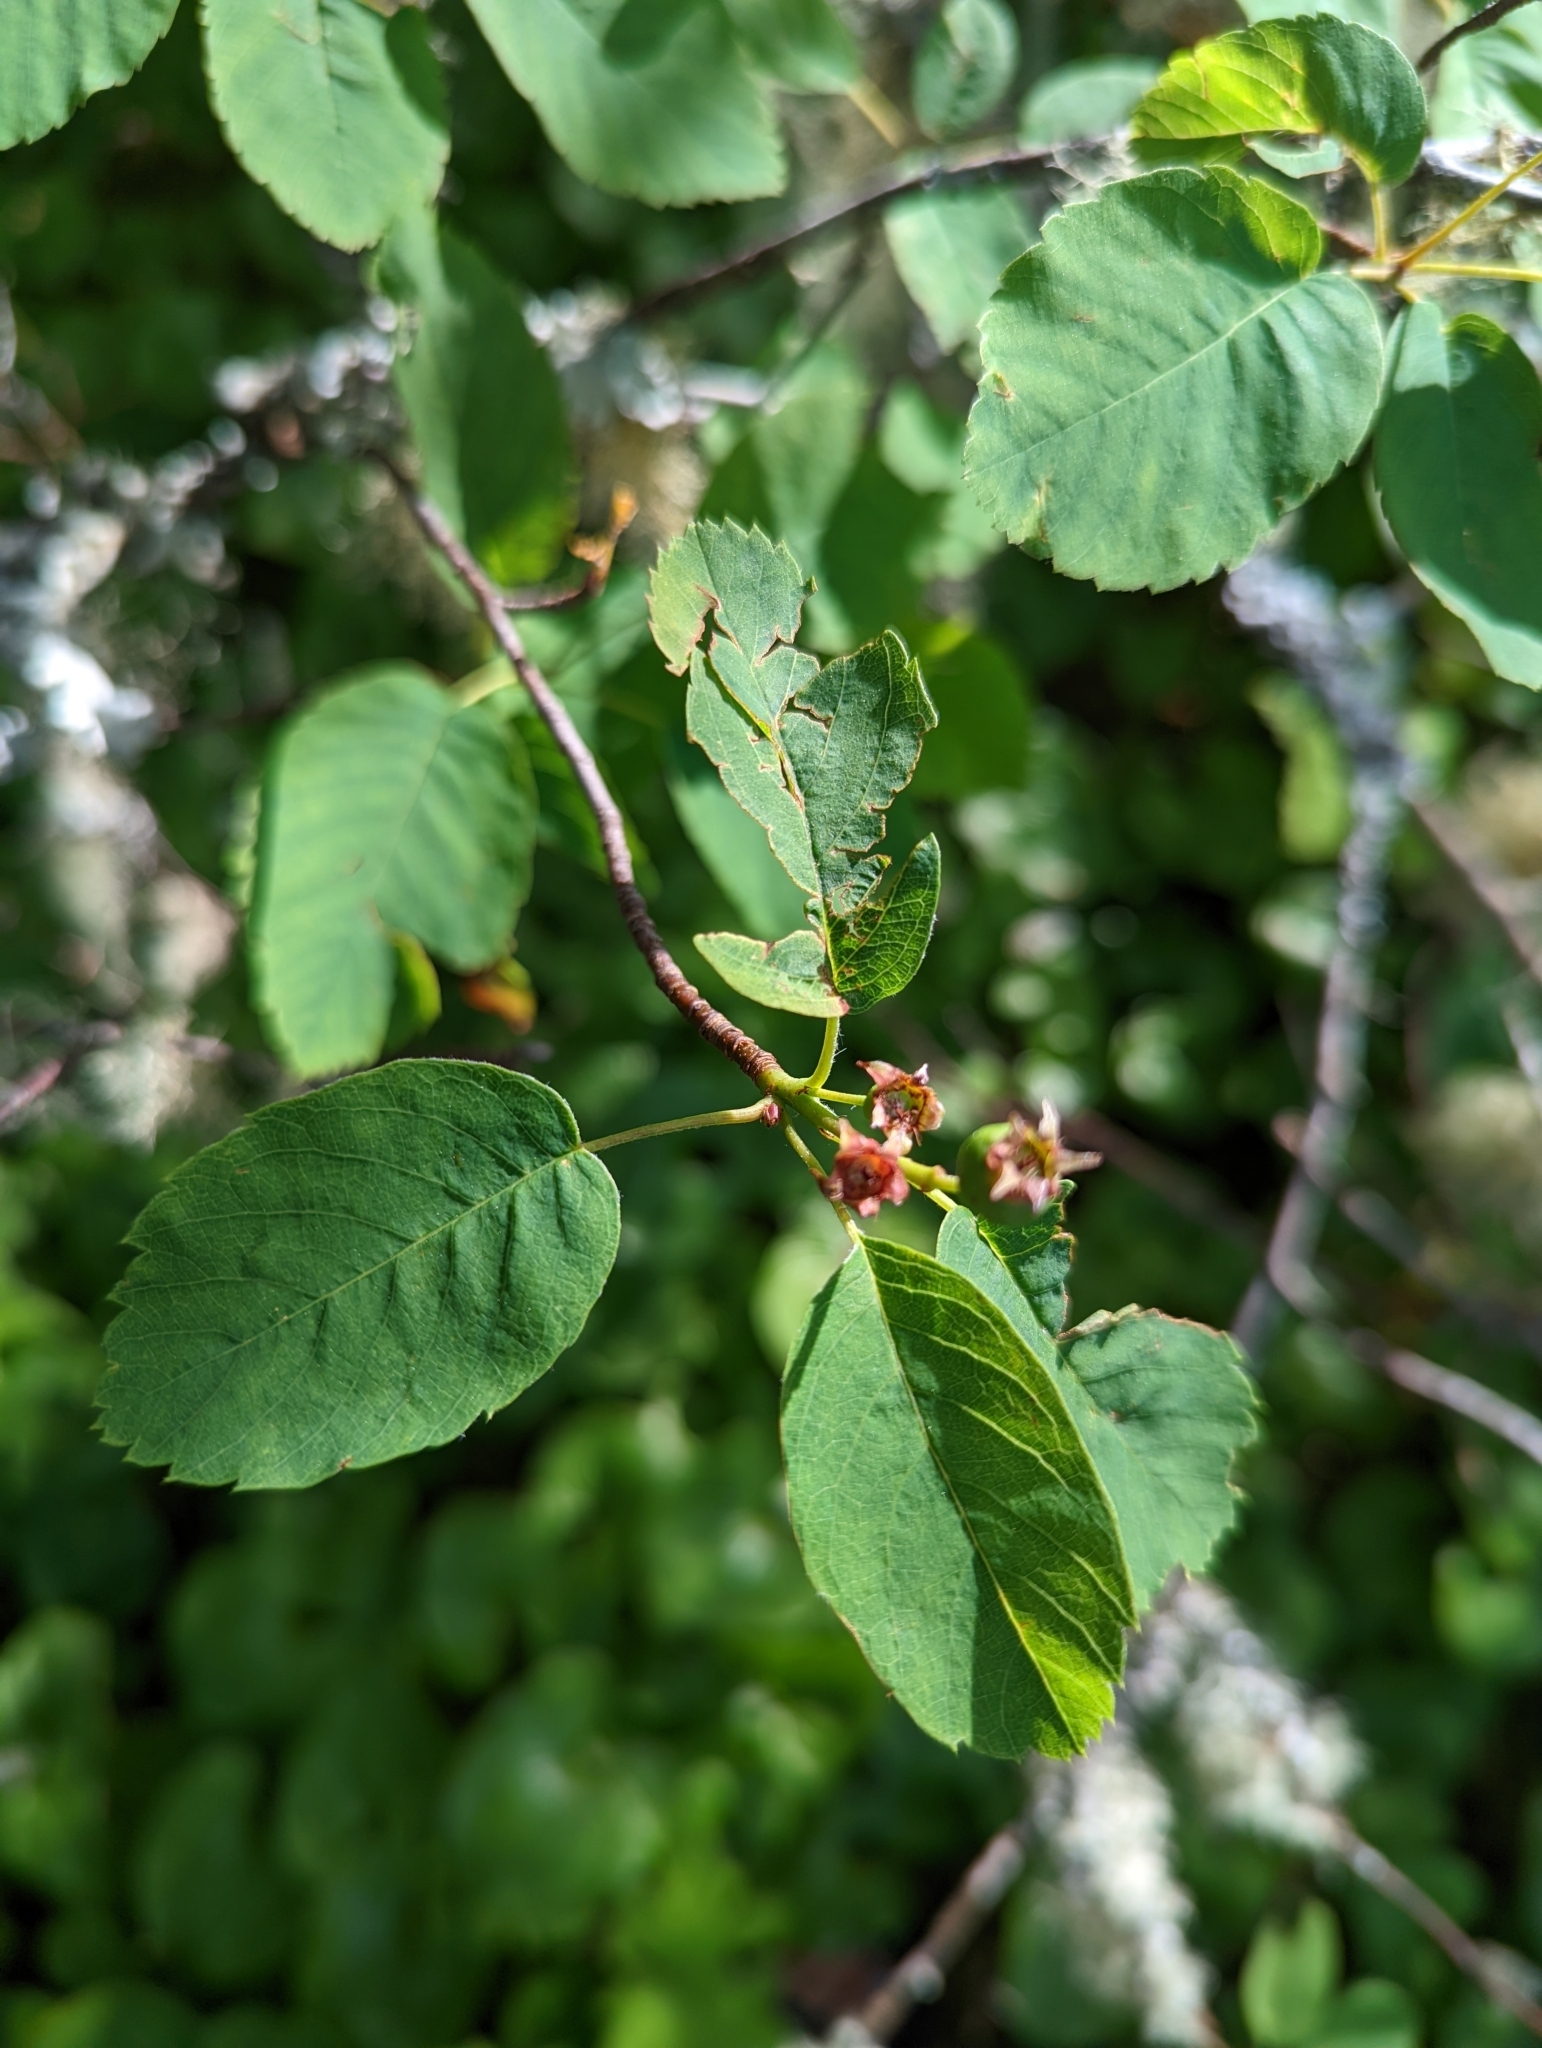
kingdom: Plantae
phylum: Tracheophyta
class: Magnoliopsida
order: Rosales
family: Rosaceae
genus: Amelanchier
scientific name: Amelanchier alnifolia
